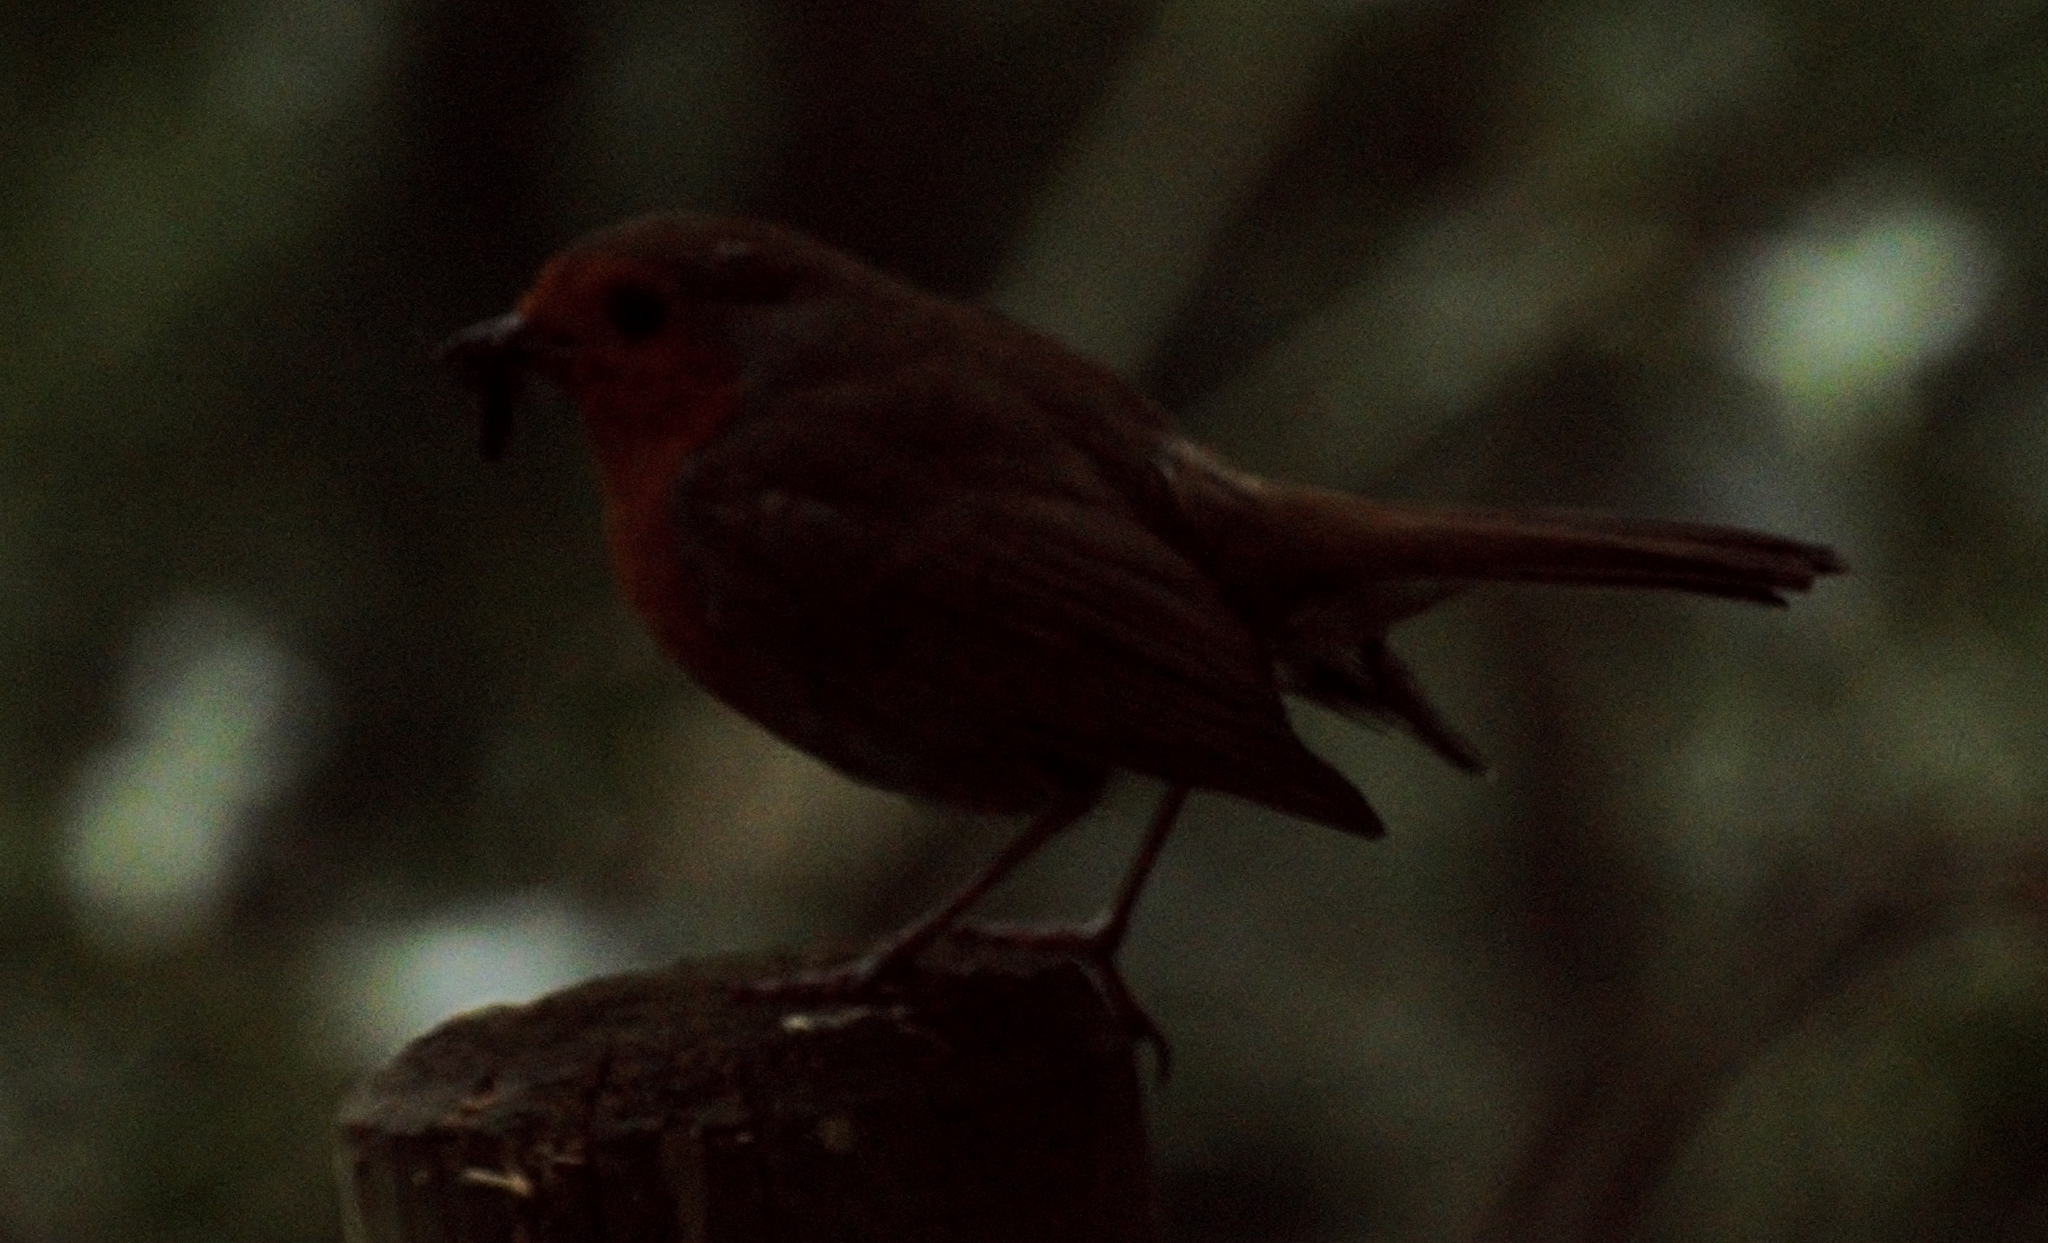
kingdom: Animalia
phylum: Chordata
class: Aves
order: Passeriformes
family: Muscicapidae
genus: Erithacus
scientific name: Erithacus rubecula
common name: European robin
